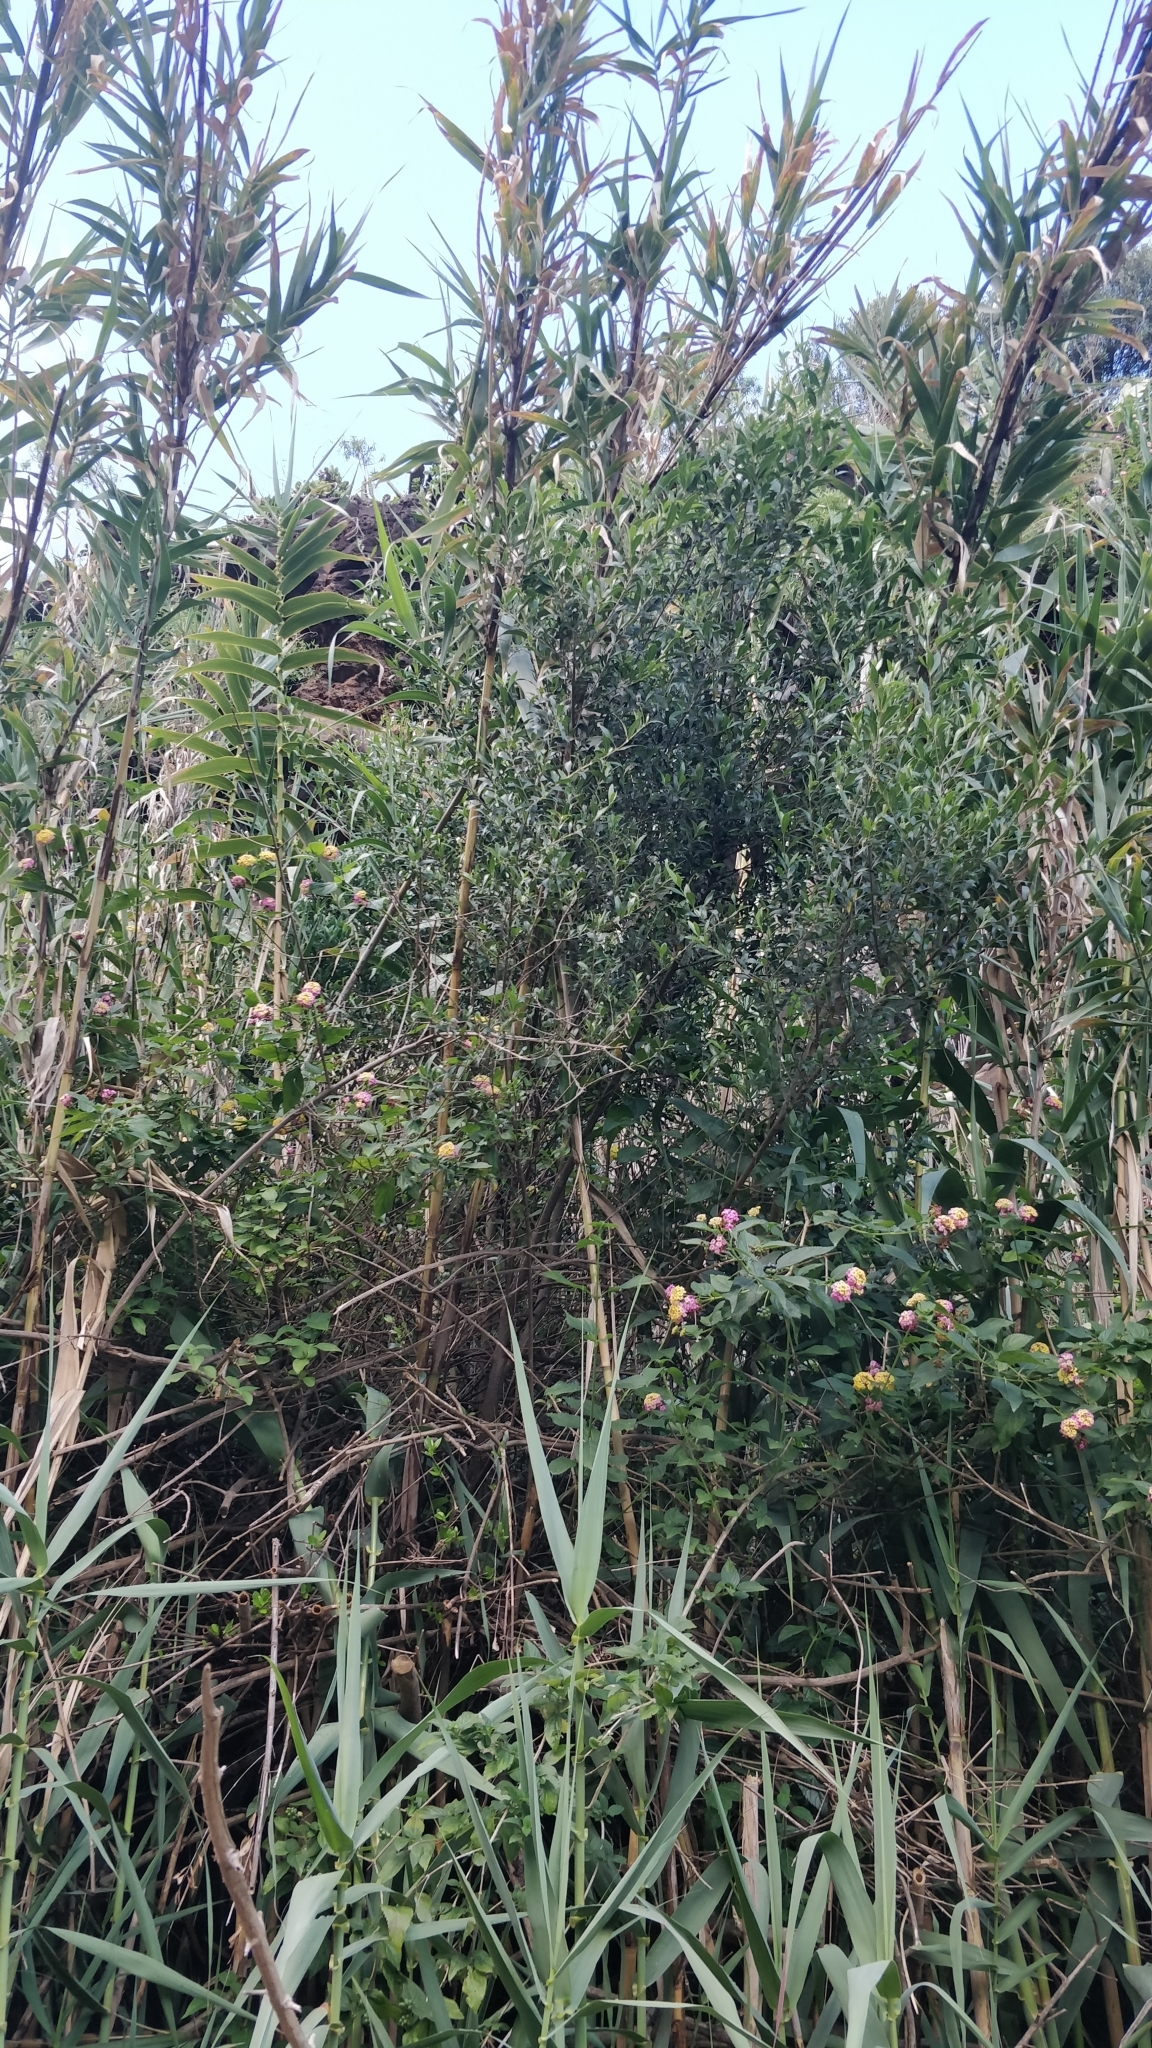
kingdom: Plantae
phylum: Tracheophyta
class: Magnoliopsida
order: Lamiales
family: Oleaceae
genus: Olea
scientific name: Olea europaea
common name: Olive
